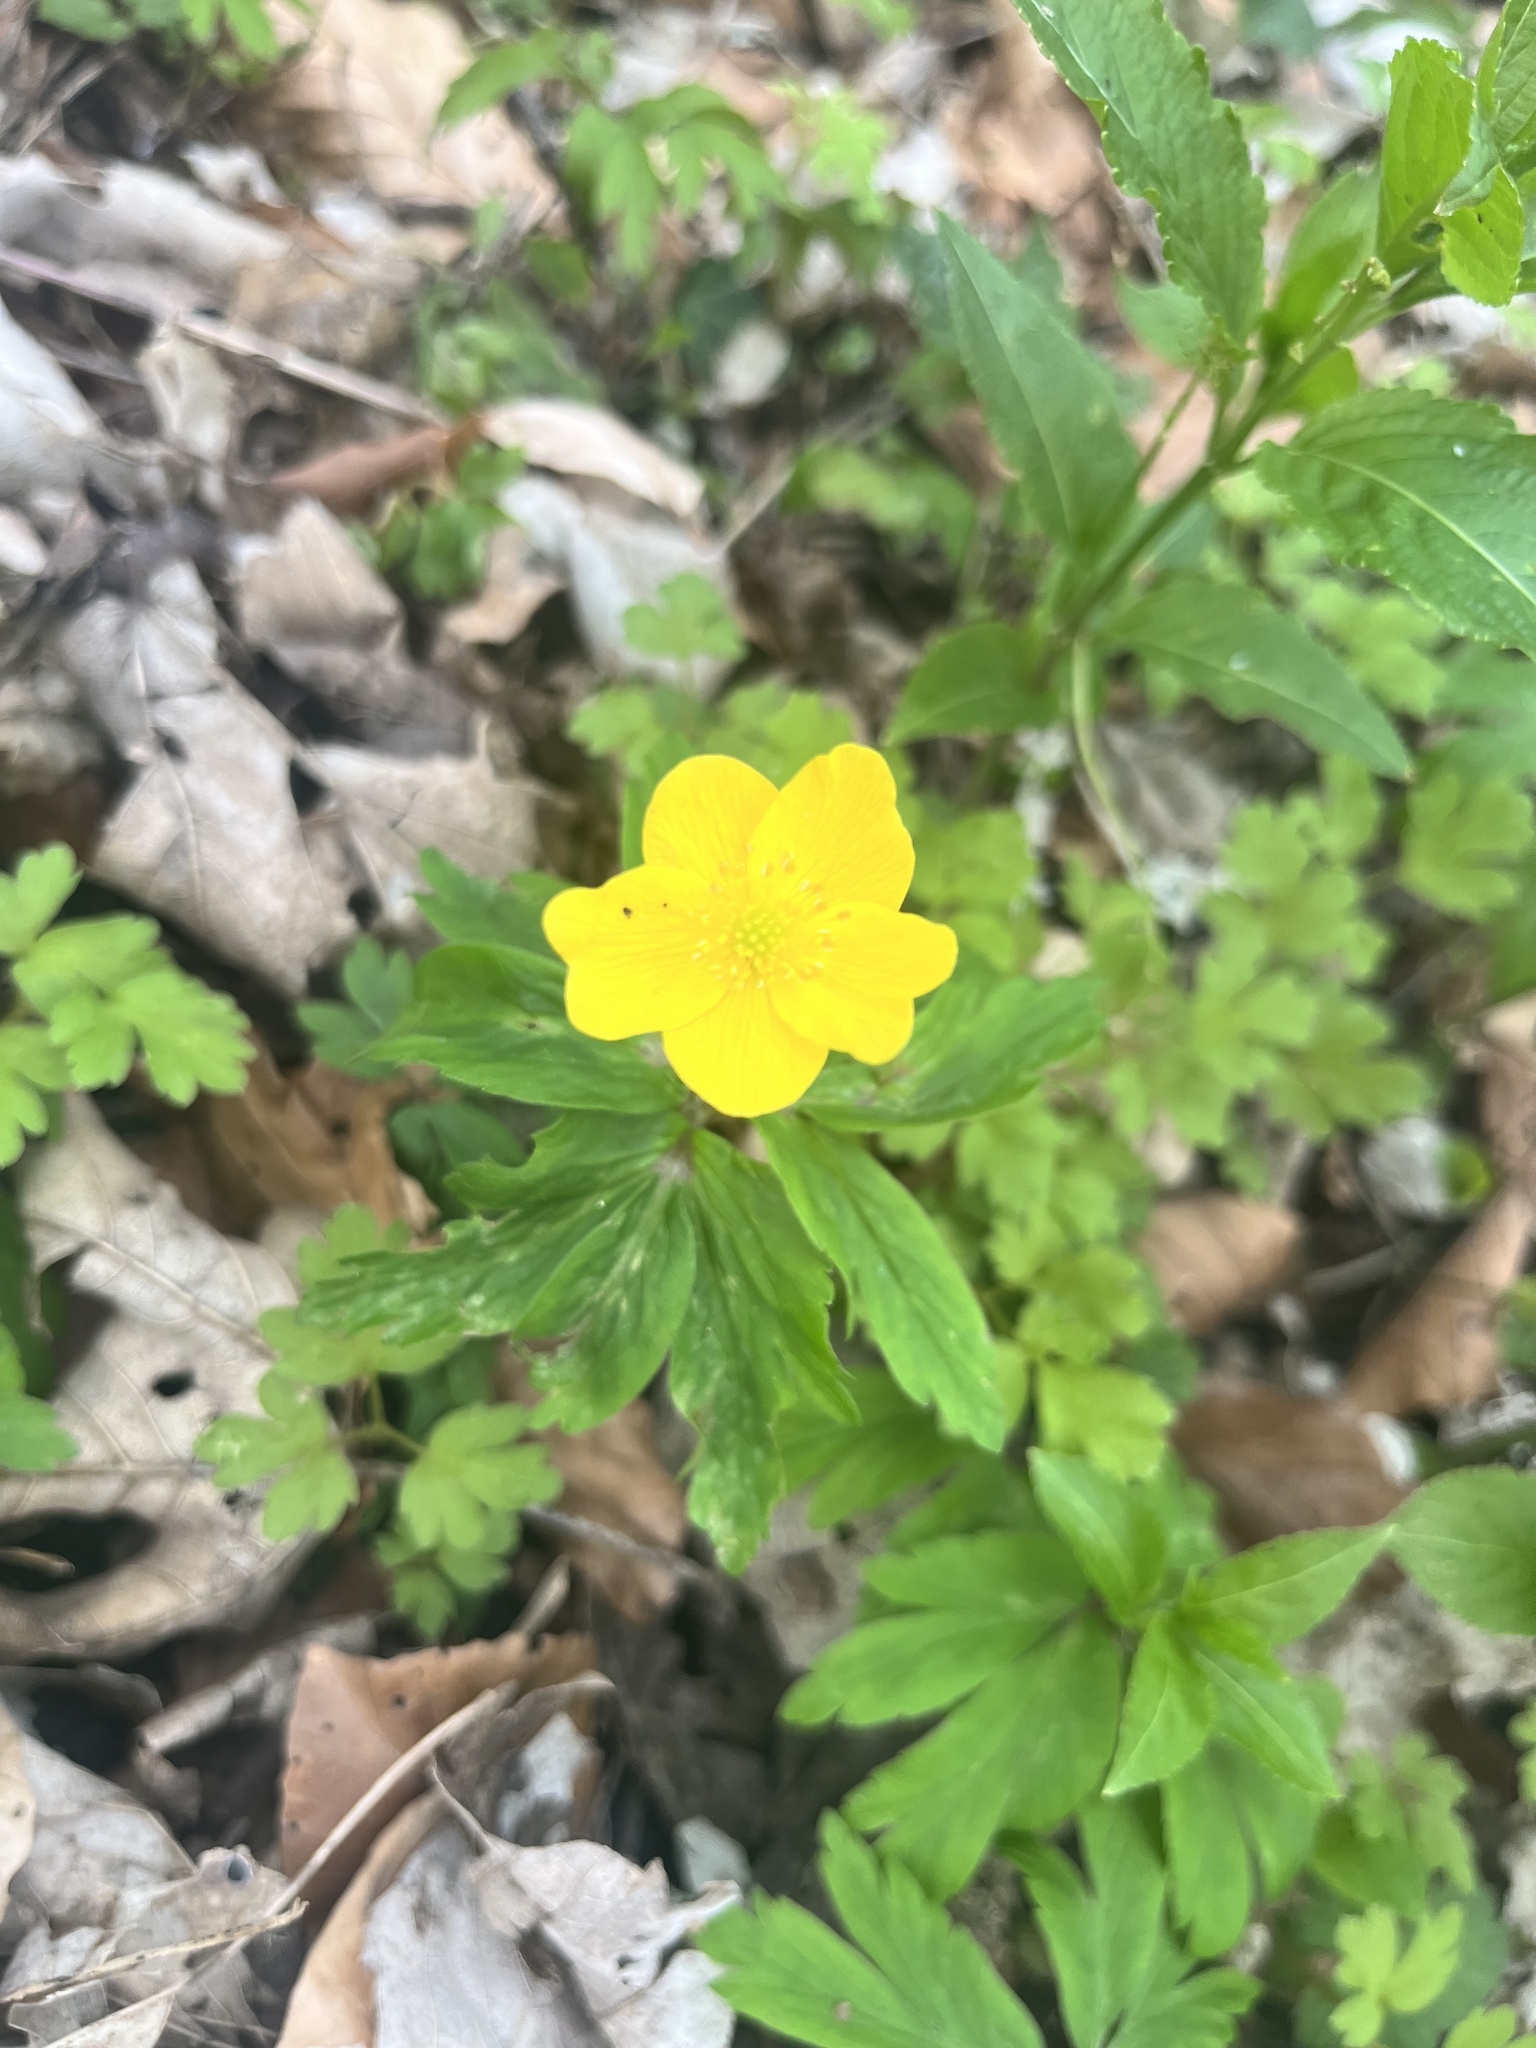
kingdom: Plantae
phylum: Tracheophyta
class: Magnoliopsida
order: Ranunculales
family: Ranunculaceae
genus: Anemone
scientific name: Anemone ranunculoides
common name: Yellow anemone
